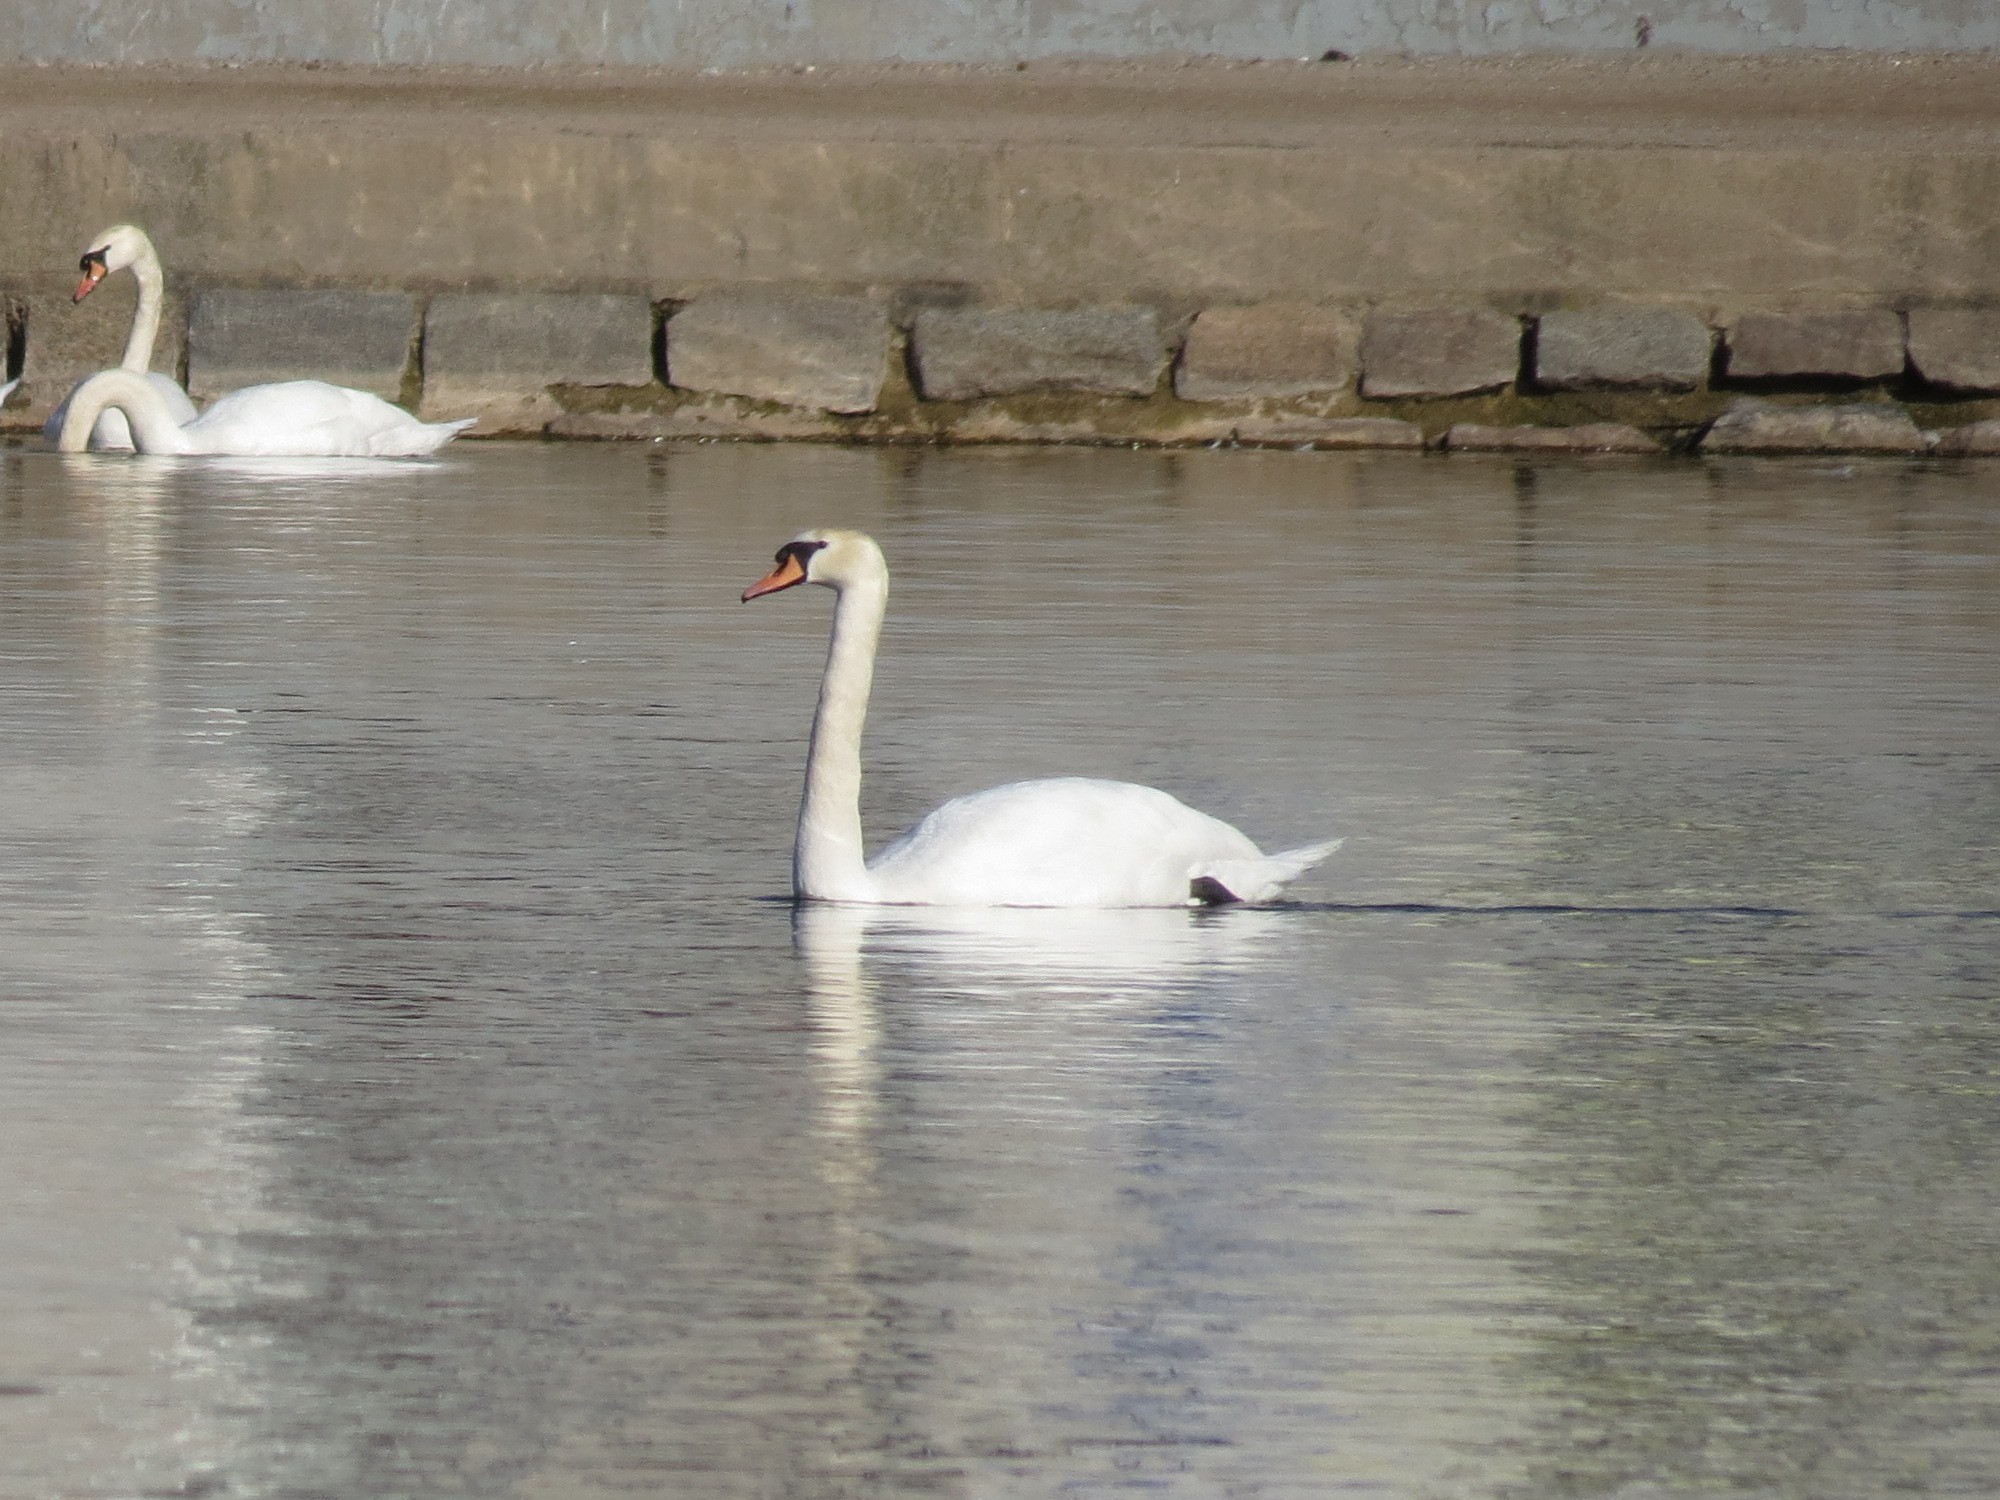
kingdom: Animalia
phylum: Chordata
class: Aves
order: Anseriformes
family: Anatidae
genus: Cygnus
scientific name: Cygnus olor
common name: Mute swan
